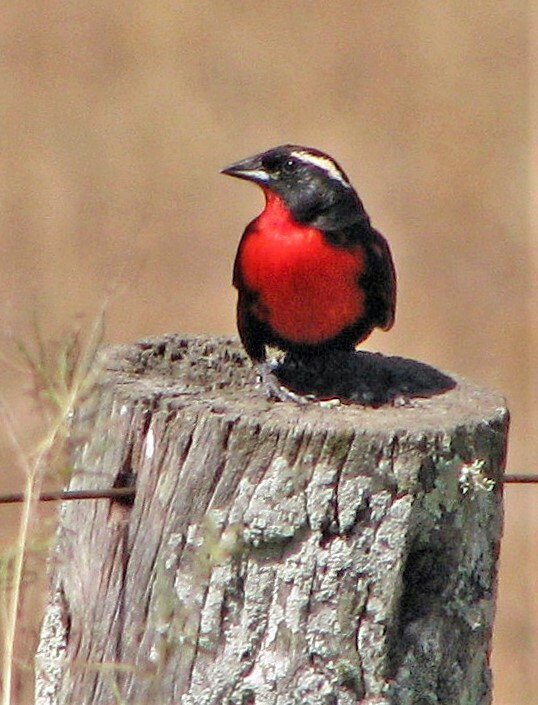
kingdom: Animalia
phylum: Chordata
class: Aves
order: Passeriformes
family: Icteridae
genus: Sturnella
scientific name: Sturnella superciliaris
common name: White-browed blackbird
